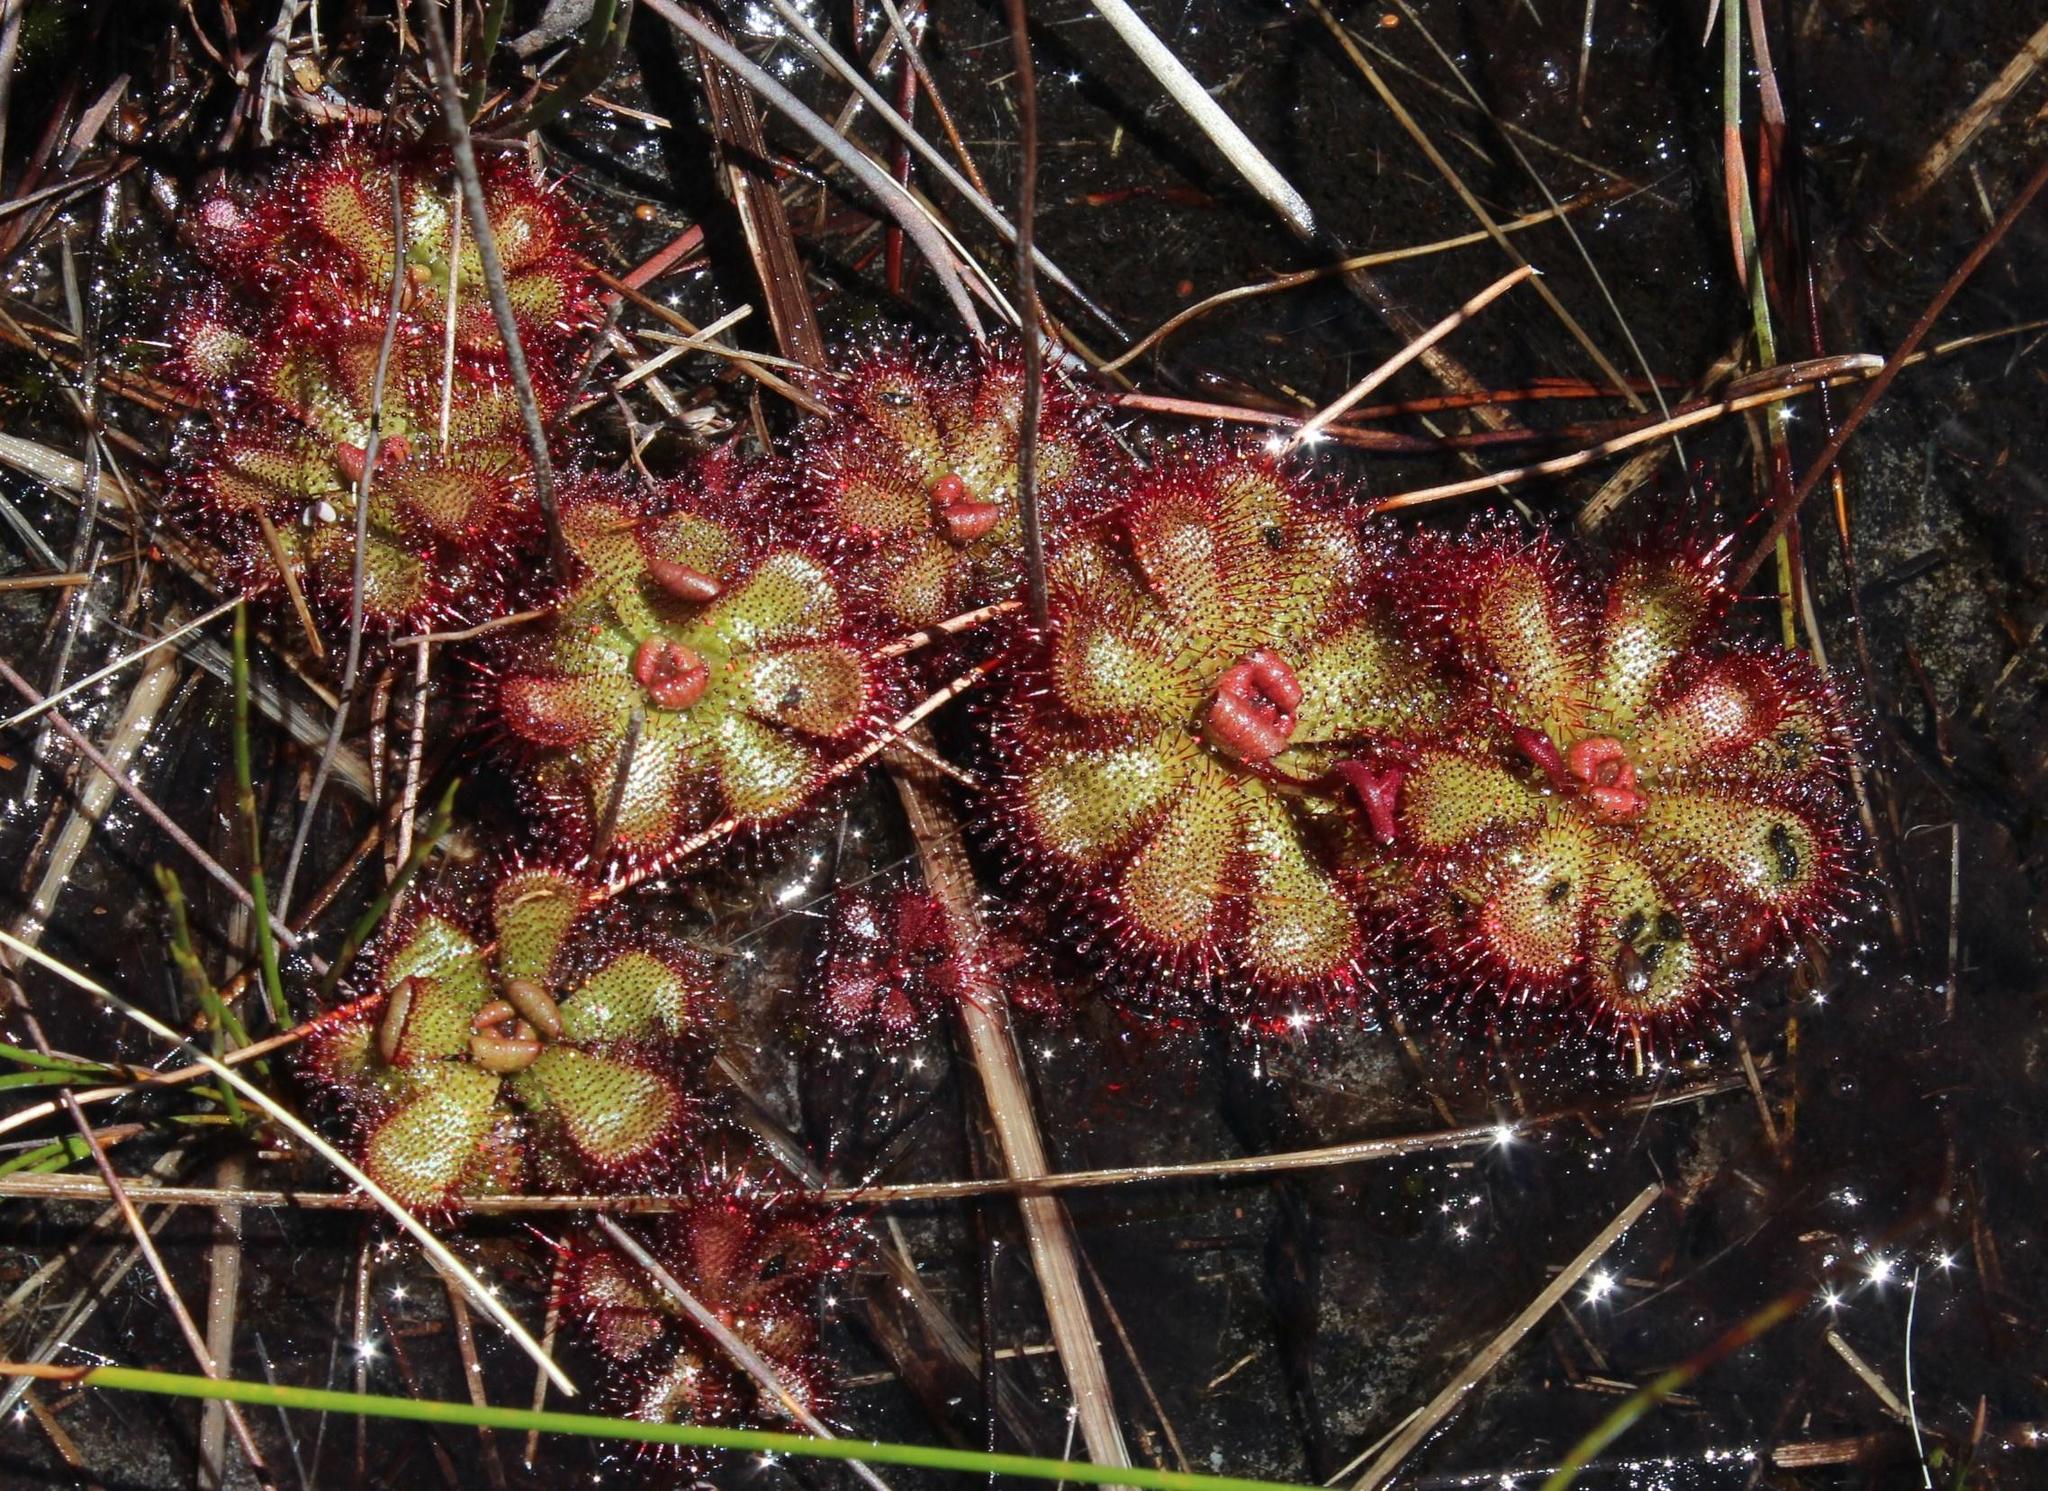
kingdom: Plantae
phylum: Tracheophyta
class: Magnoliopsida
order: Caryophyllales
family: Droseraceae
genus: Drosera
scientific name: Drosera cuneifolia
